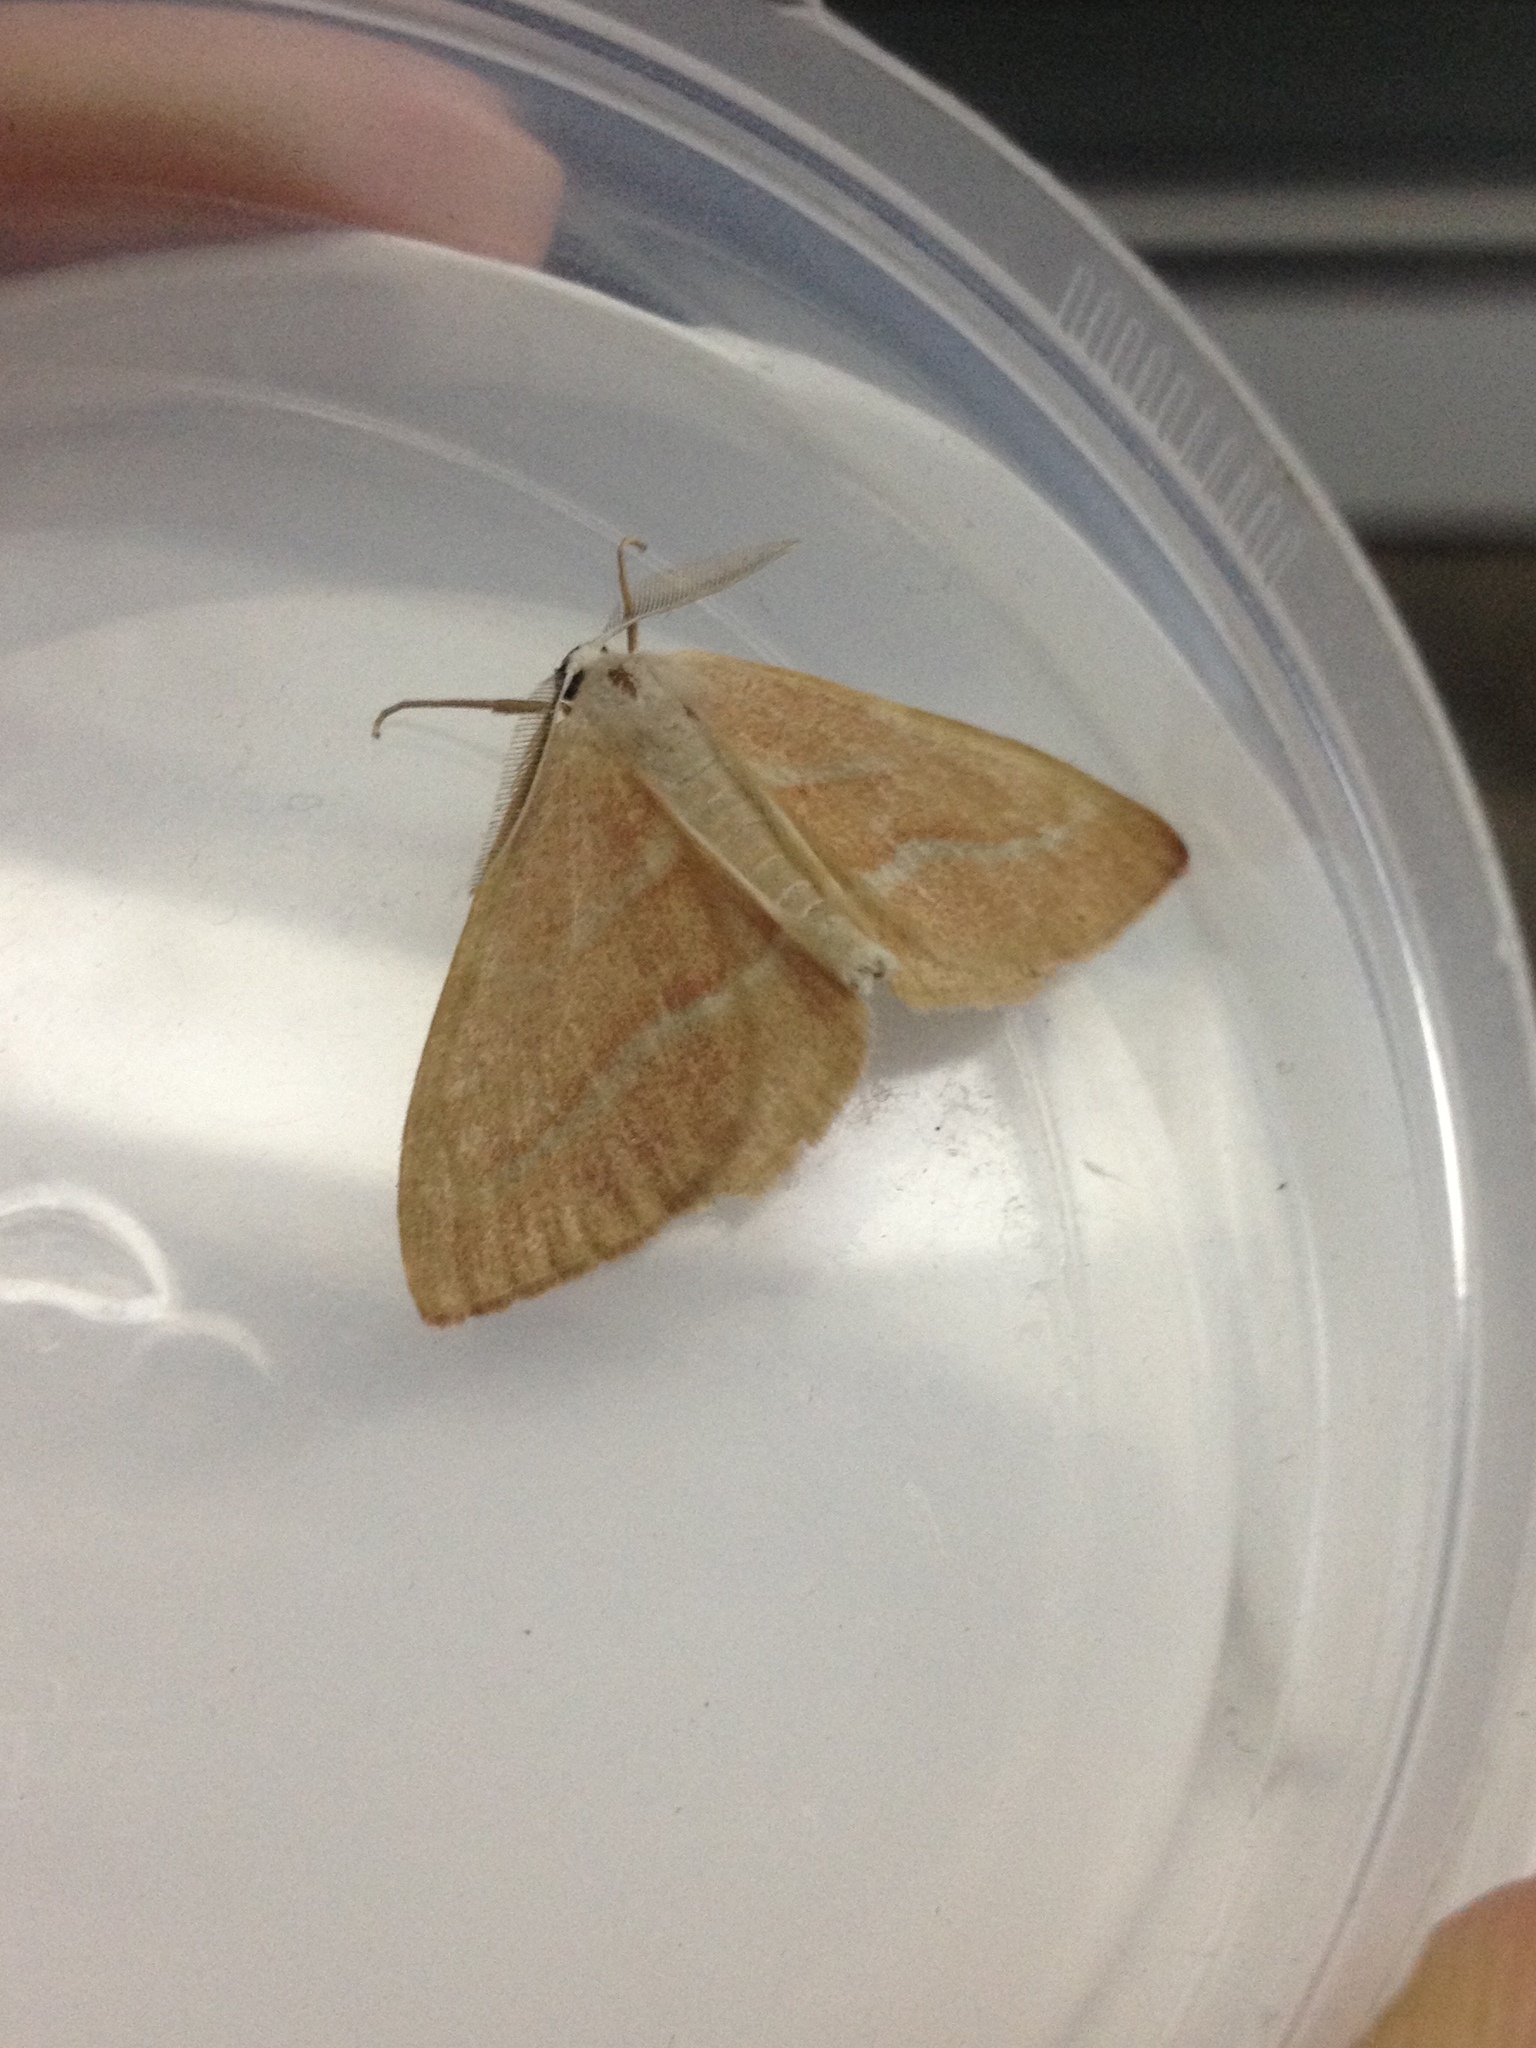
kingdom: Animalia
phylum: Arthropoda
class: Insecta
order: Lepidoptera
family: Geometridae
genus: Hylaea
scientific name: Hylaea fasciaria
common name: Barred red
